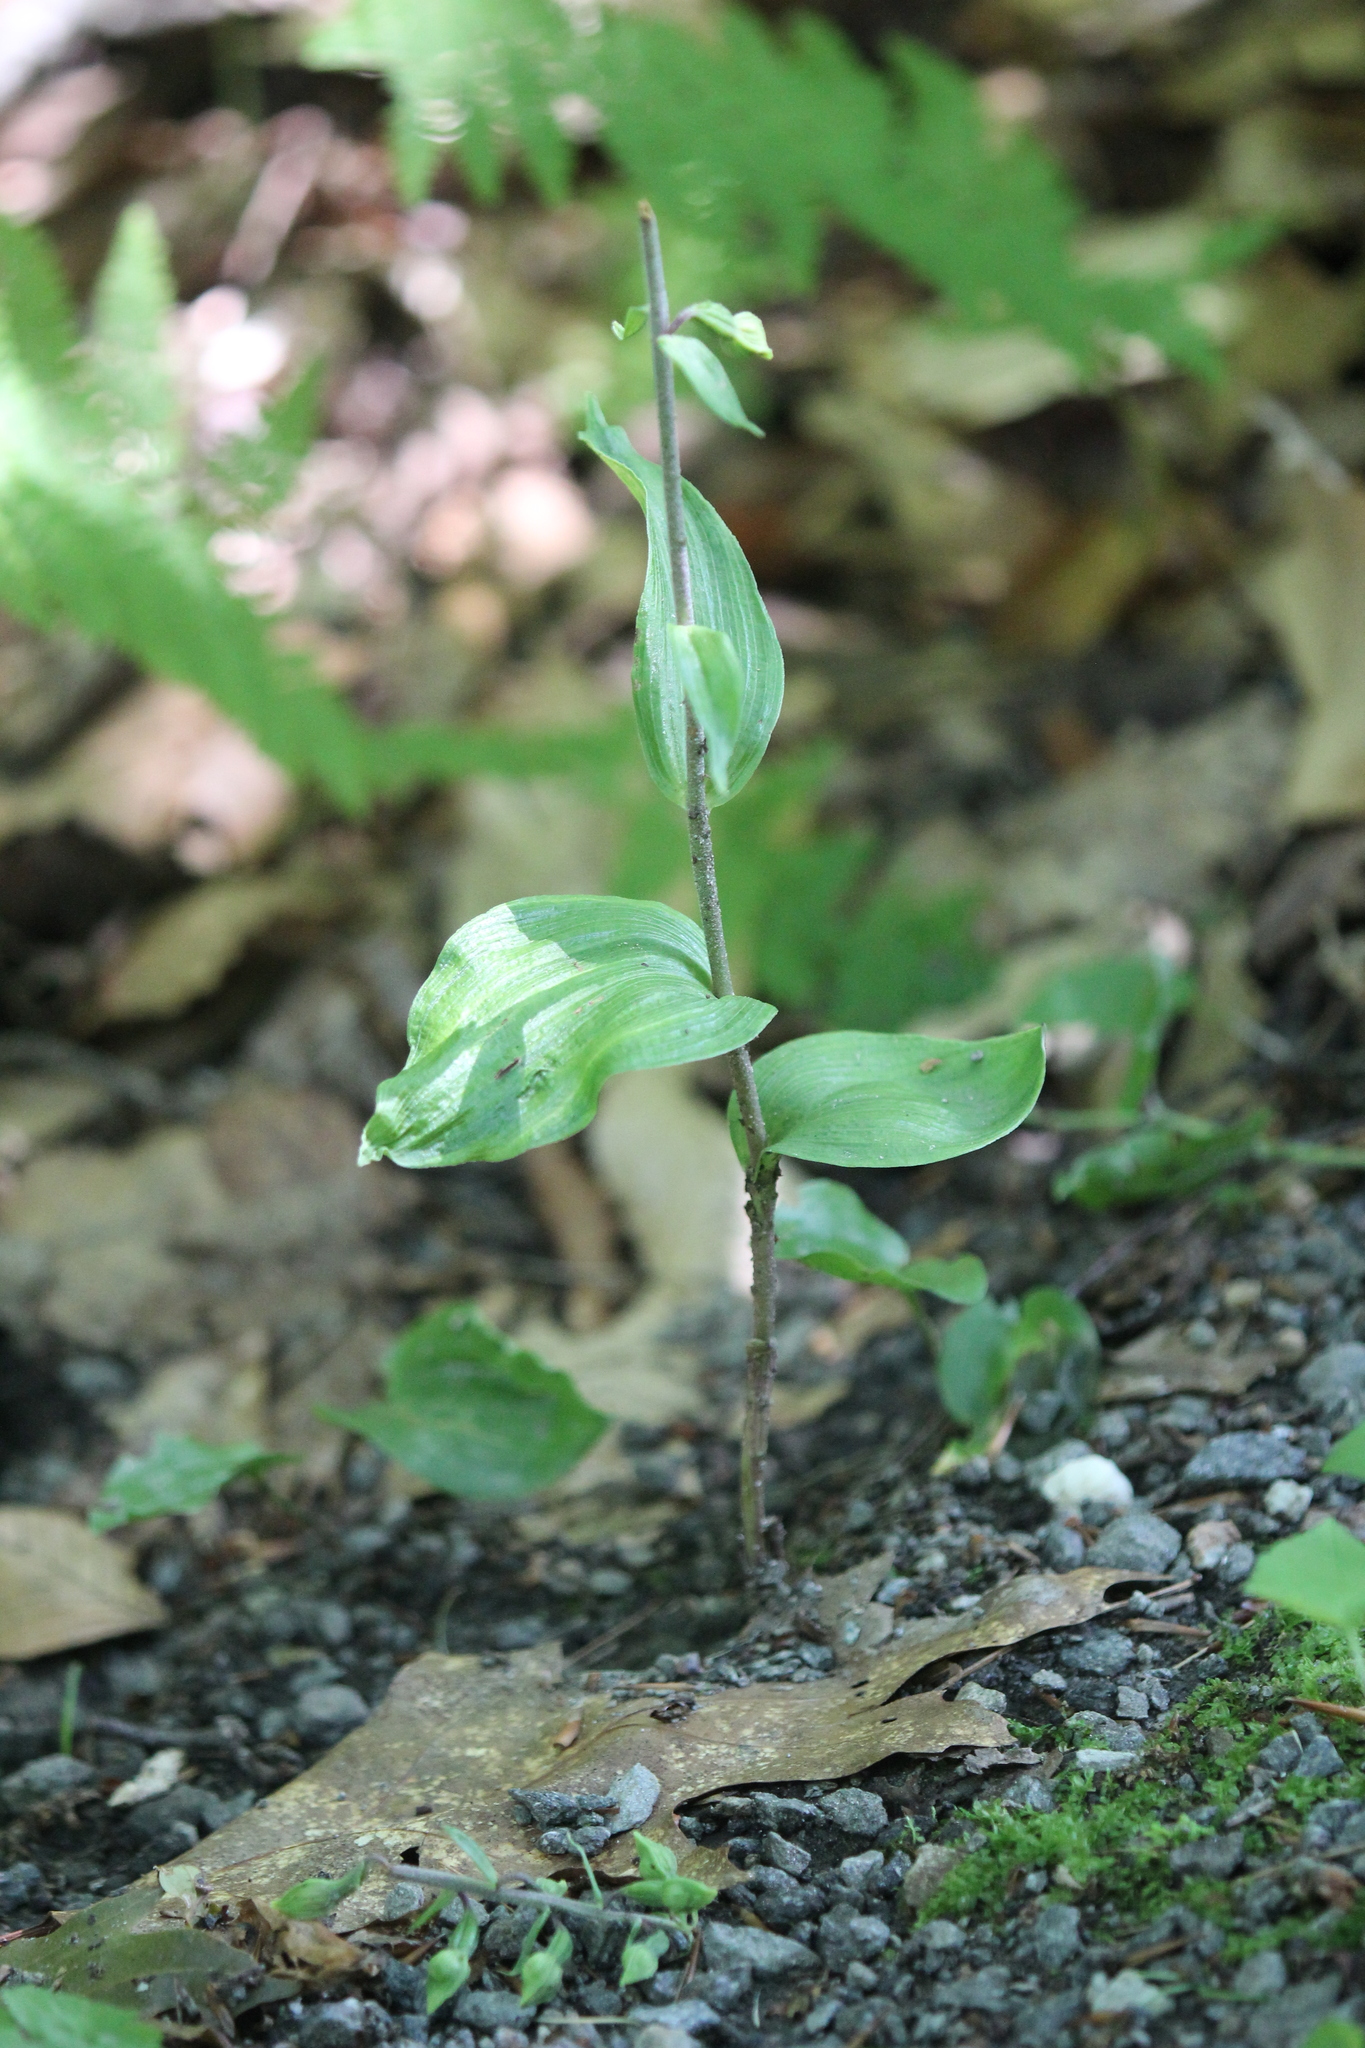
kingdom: Plantae
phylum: Tracheophyta
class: Liliopsida
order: Asparagales
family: Orchidaceae
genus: Epipactis
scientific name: Epipactis helleborine
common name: Broad-leaved helleborine
